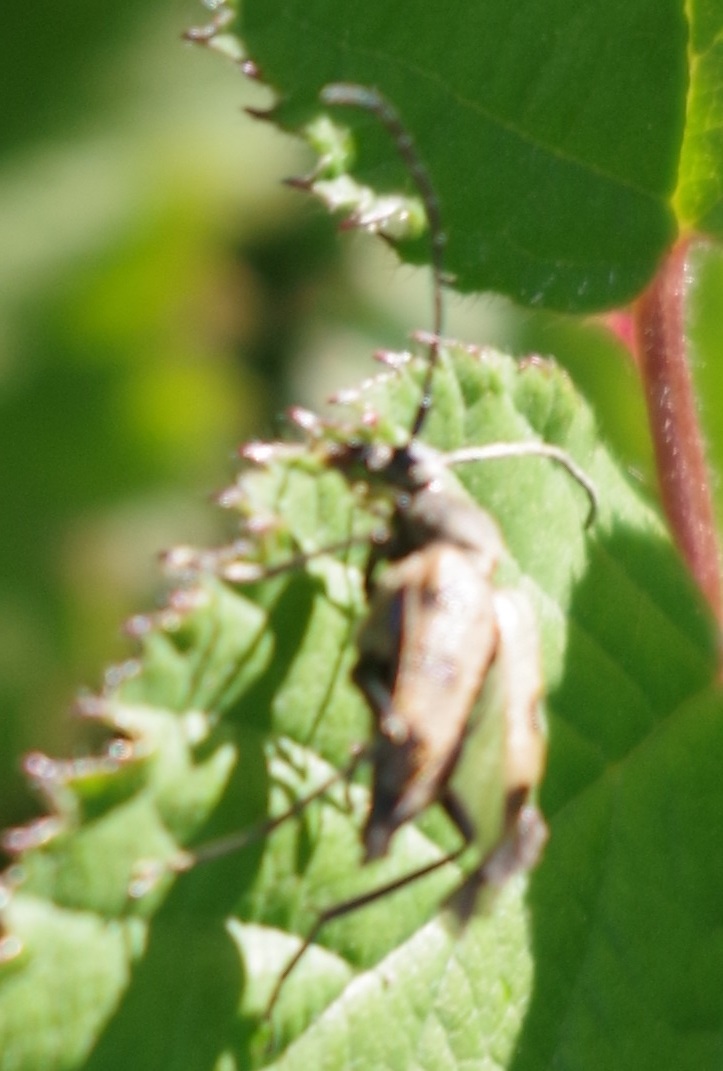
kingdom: Animalia
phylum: Arthropoda
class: Insecta
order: Coleoptera
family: Cerambycidae
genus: Pachytodes
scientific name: Pachytodes cerambyciformis
